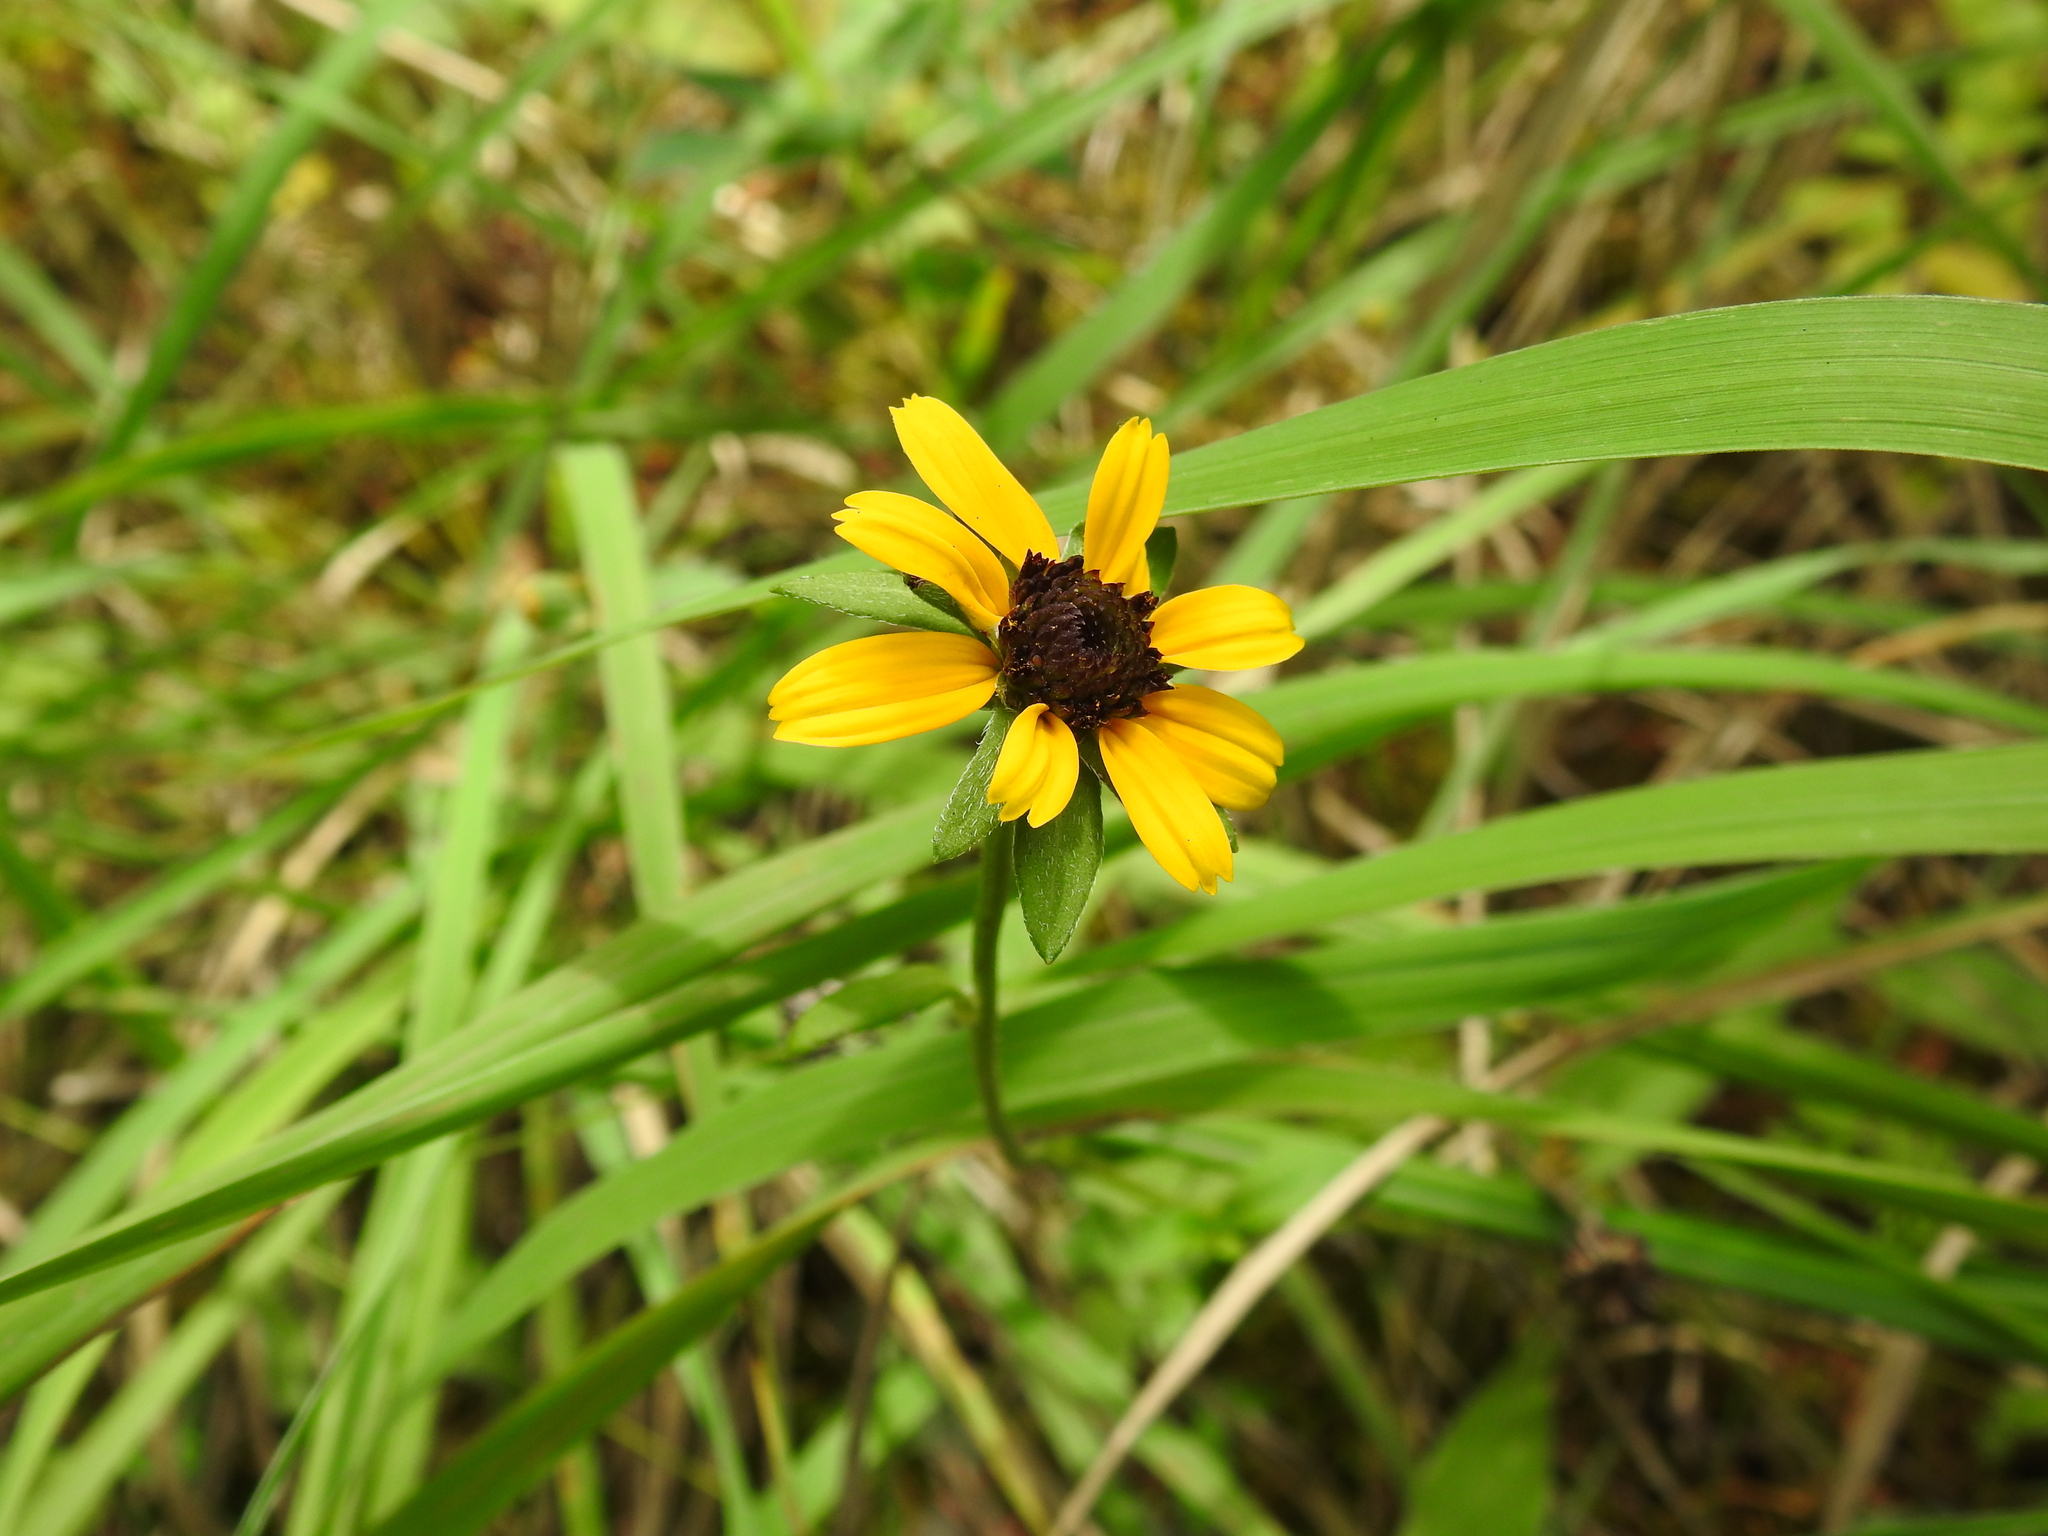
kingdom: Plantae
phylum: Tracheophyta
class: Magnoliopsida
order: Asterales
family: Asteraceae
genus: Rudbeckia
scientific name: Rudbeckia hirta
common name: Black-eyed-susan
